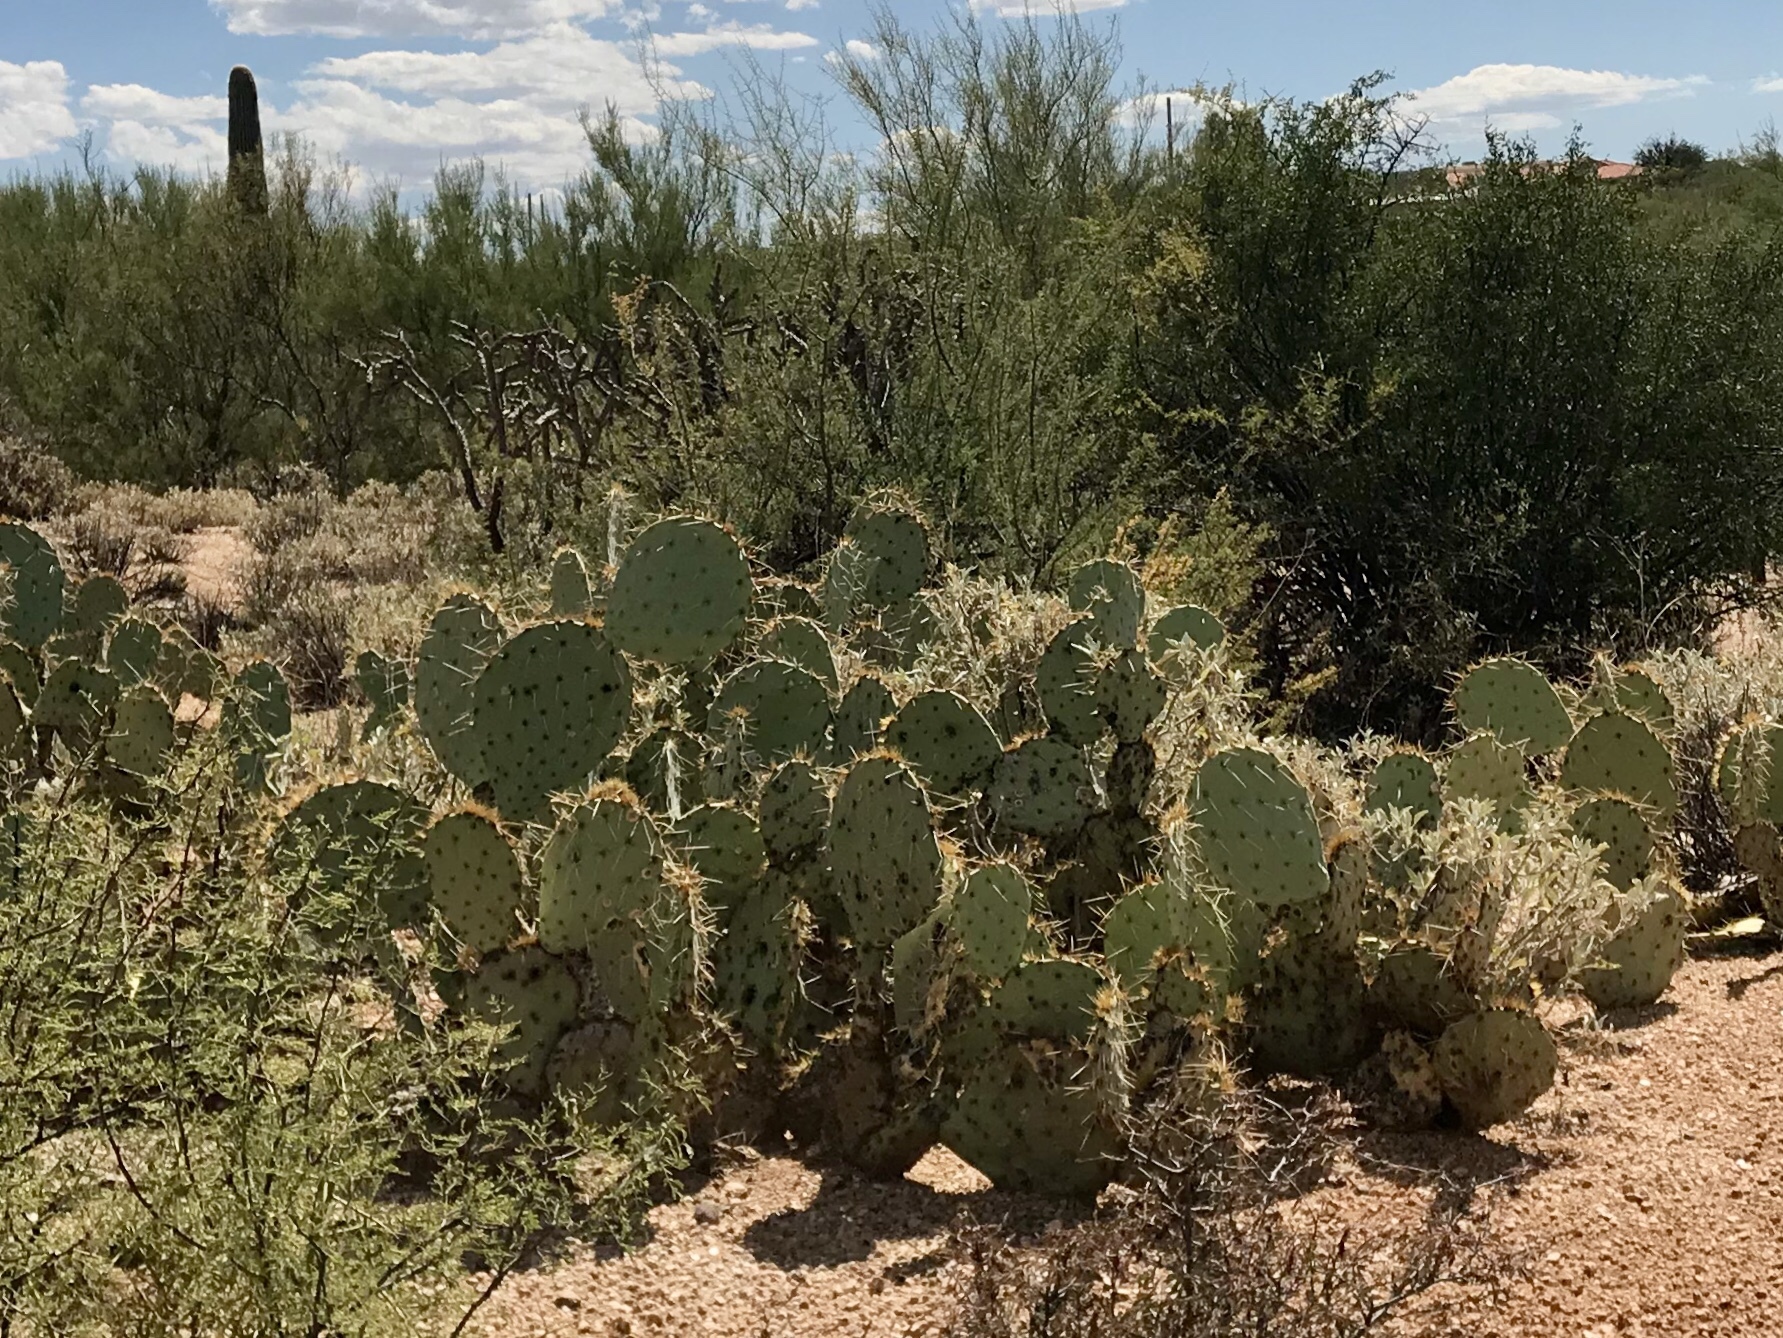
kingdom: Plantae
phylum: Tracheophyta
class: Magnoliopsida
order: Caryophyllales
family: Cactaceae
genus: Opuntia
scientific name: Opuntia engelmannii
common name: Cactus-apple
